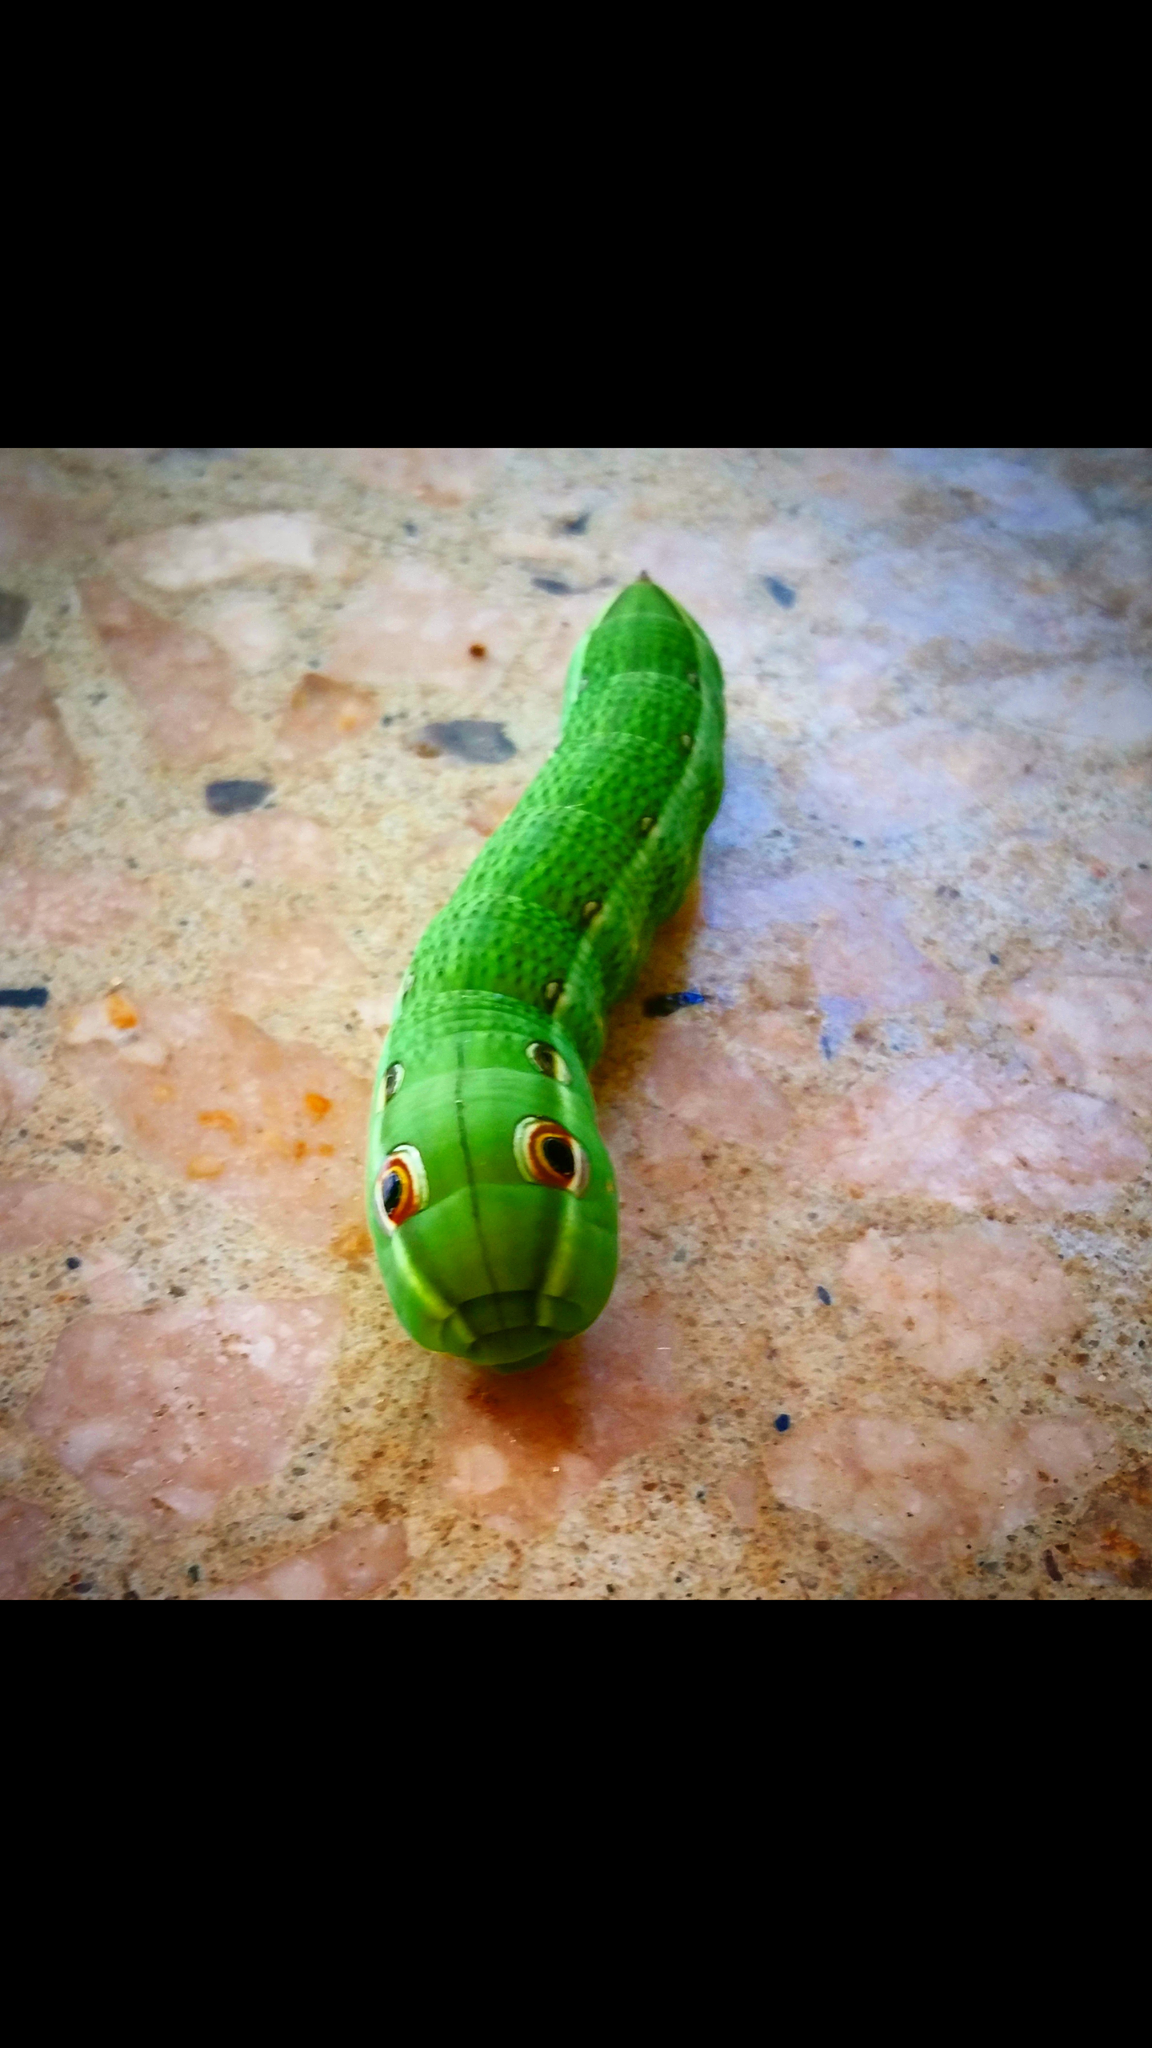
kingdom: Animalia
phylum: Arthropoda
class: Insecta
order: Lepidoptera
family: Sphingidae
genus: Xylophanes
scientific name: Xylophanes tersa
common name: Tersa sphinx
